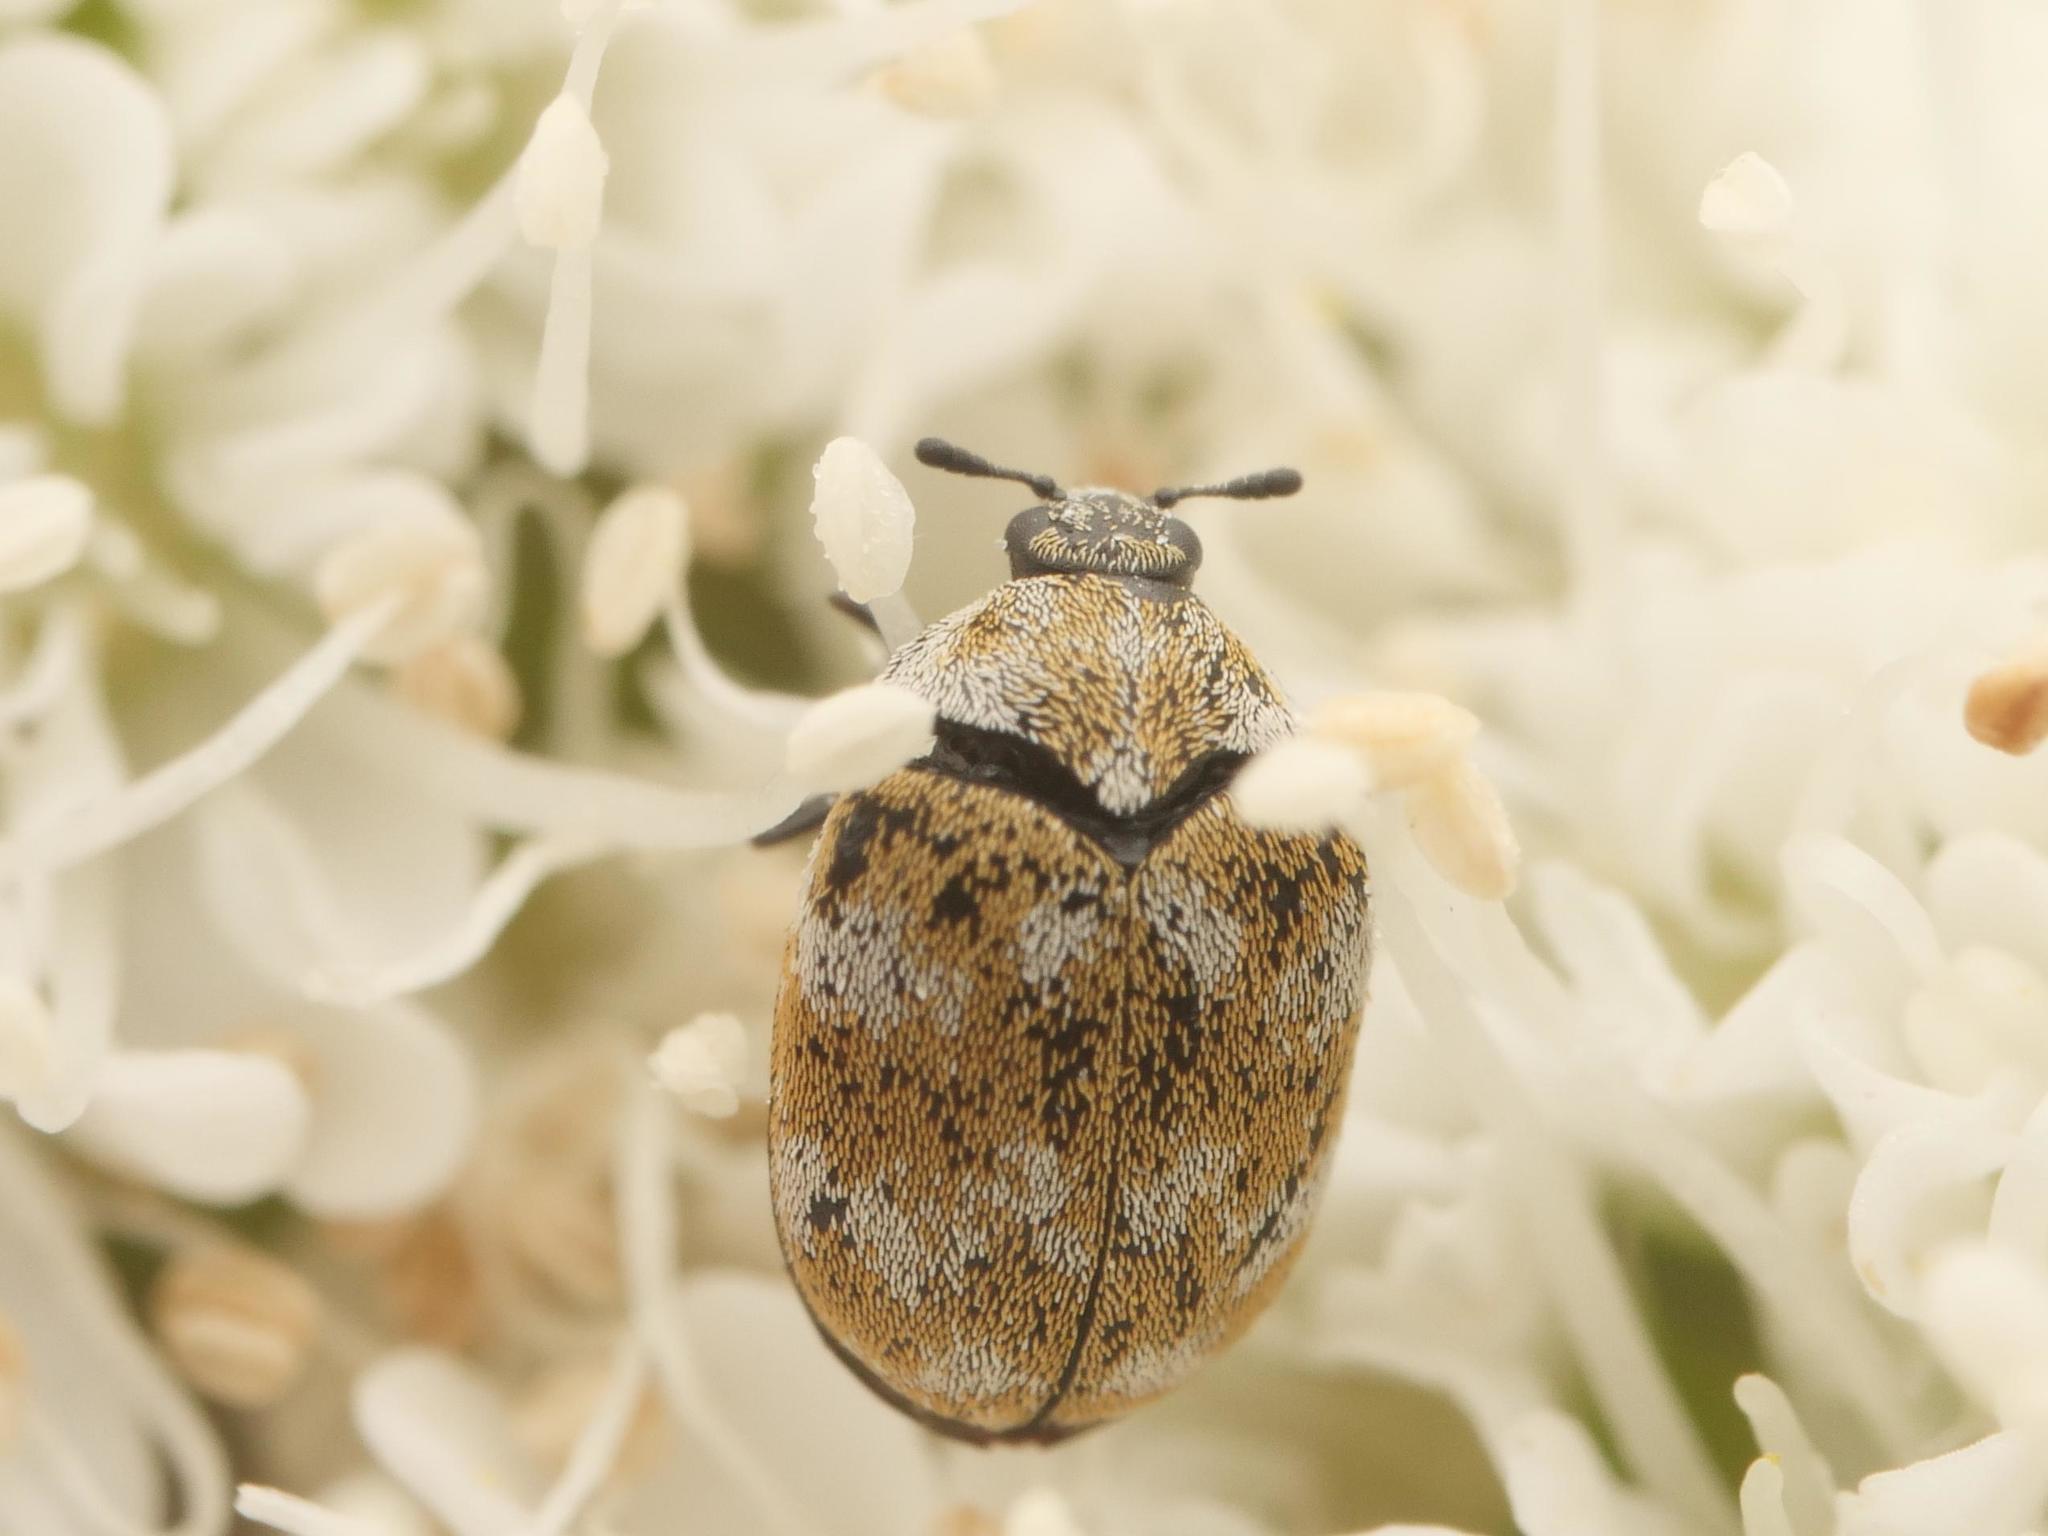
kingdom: Animalia
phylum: Arthropoda
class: Insecta
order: Coleoptera
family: Dermestidae
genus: Anthrenus
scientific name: Anthrenus verbasci
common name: Varied carpet beetle
